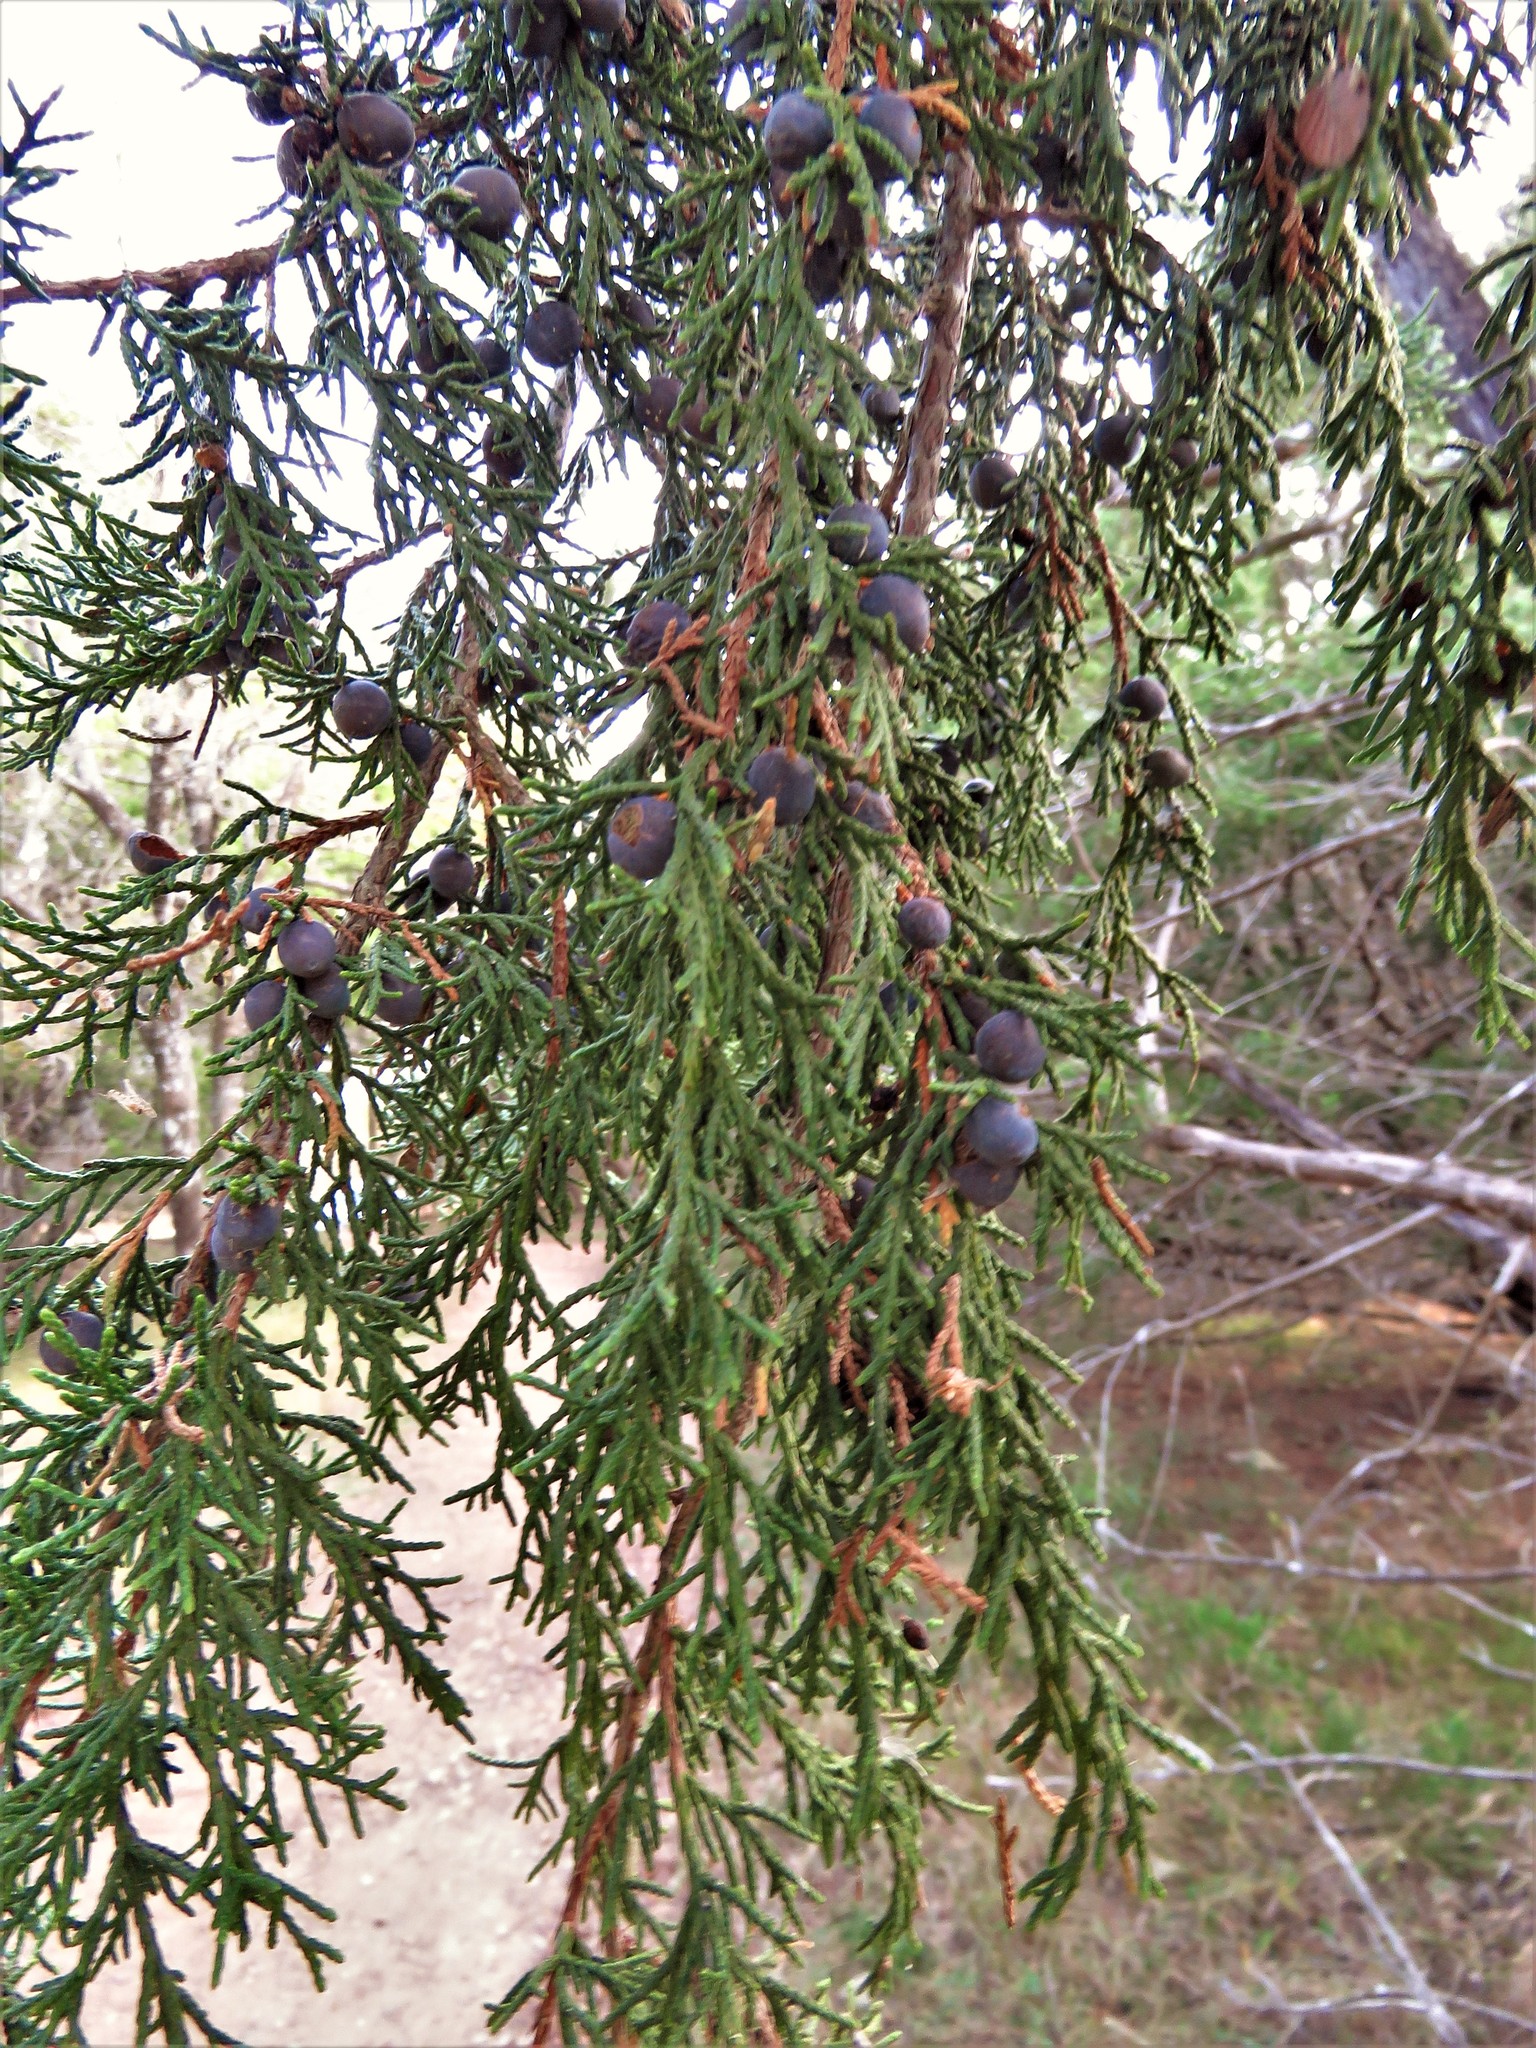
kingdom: Plantae
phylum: Tracheophyta
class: Pinopsida
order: Pinales
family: Cupressaceae
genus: Juniperus
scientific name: Juniperus virginiana
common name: Red juniper
